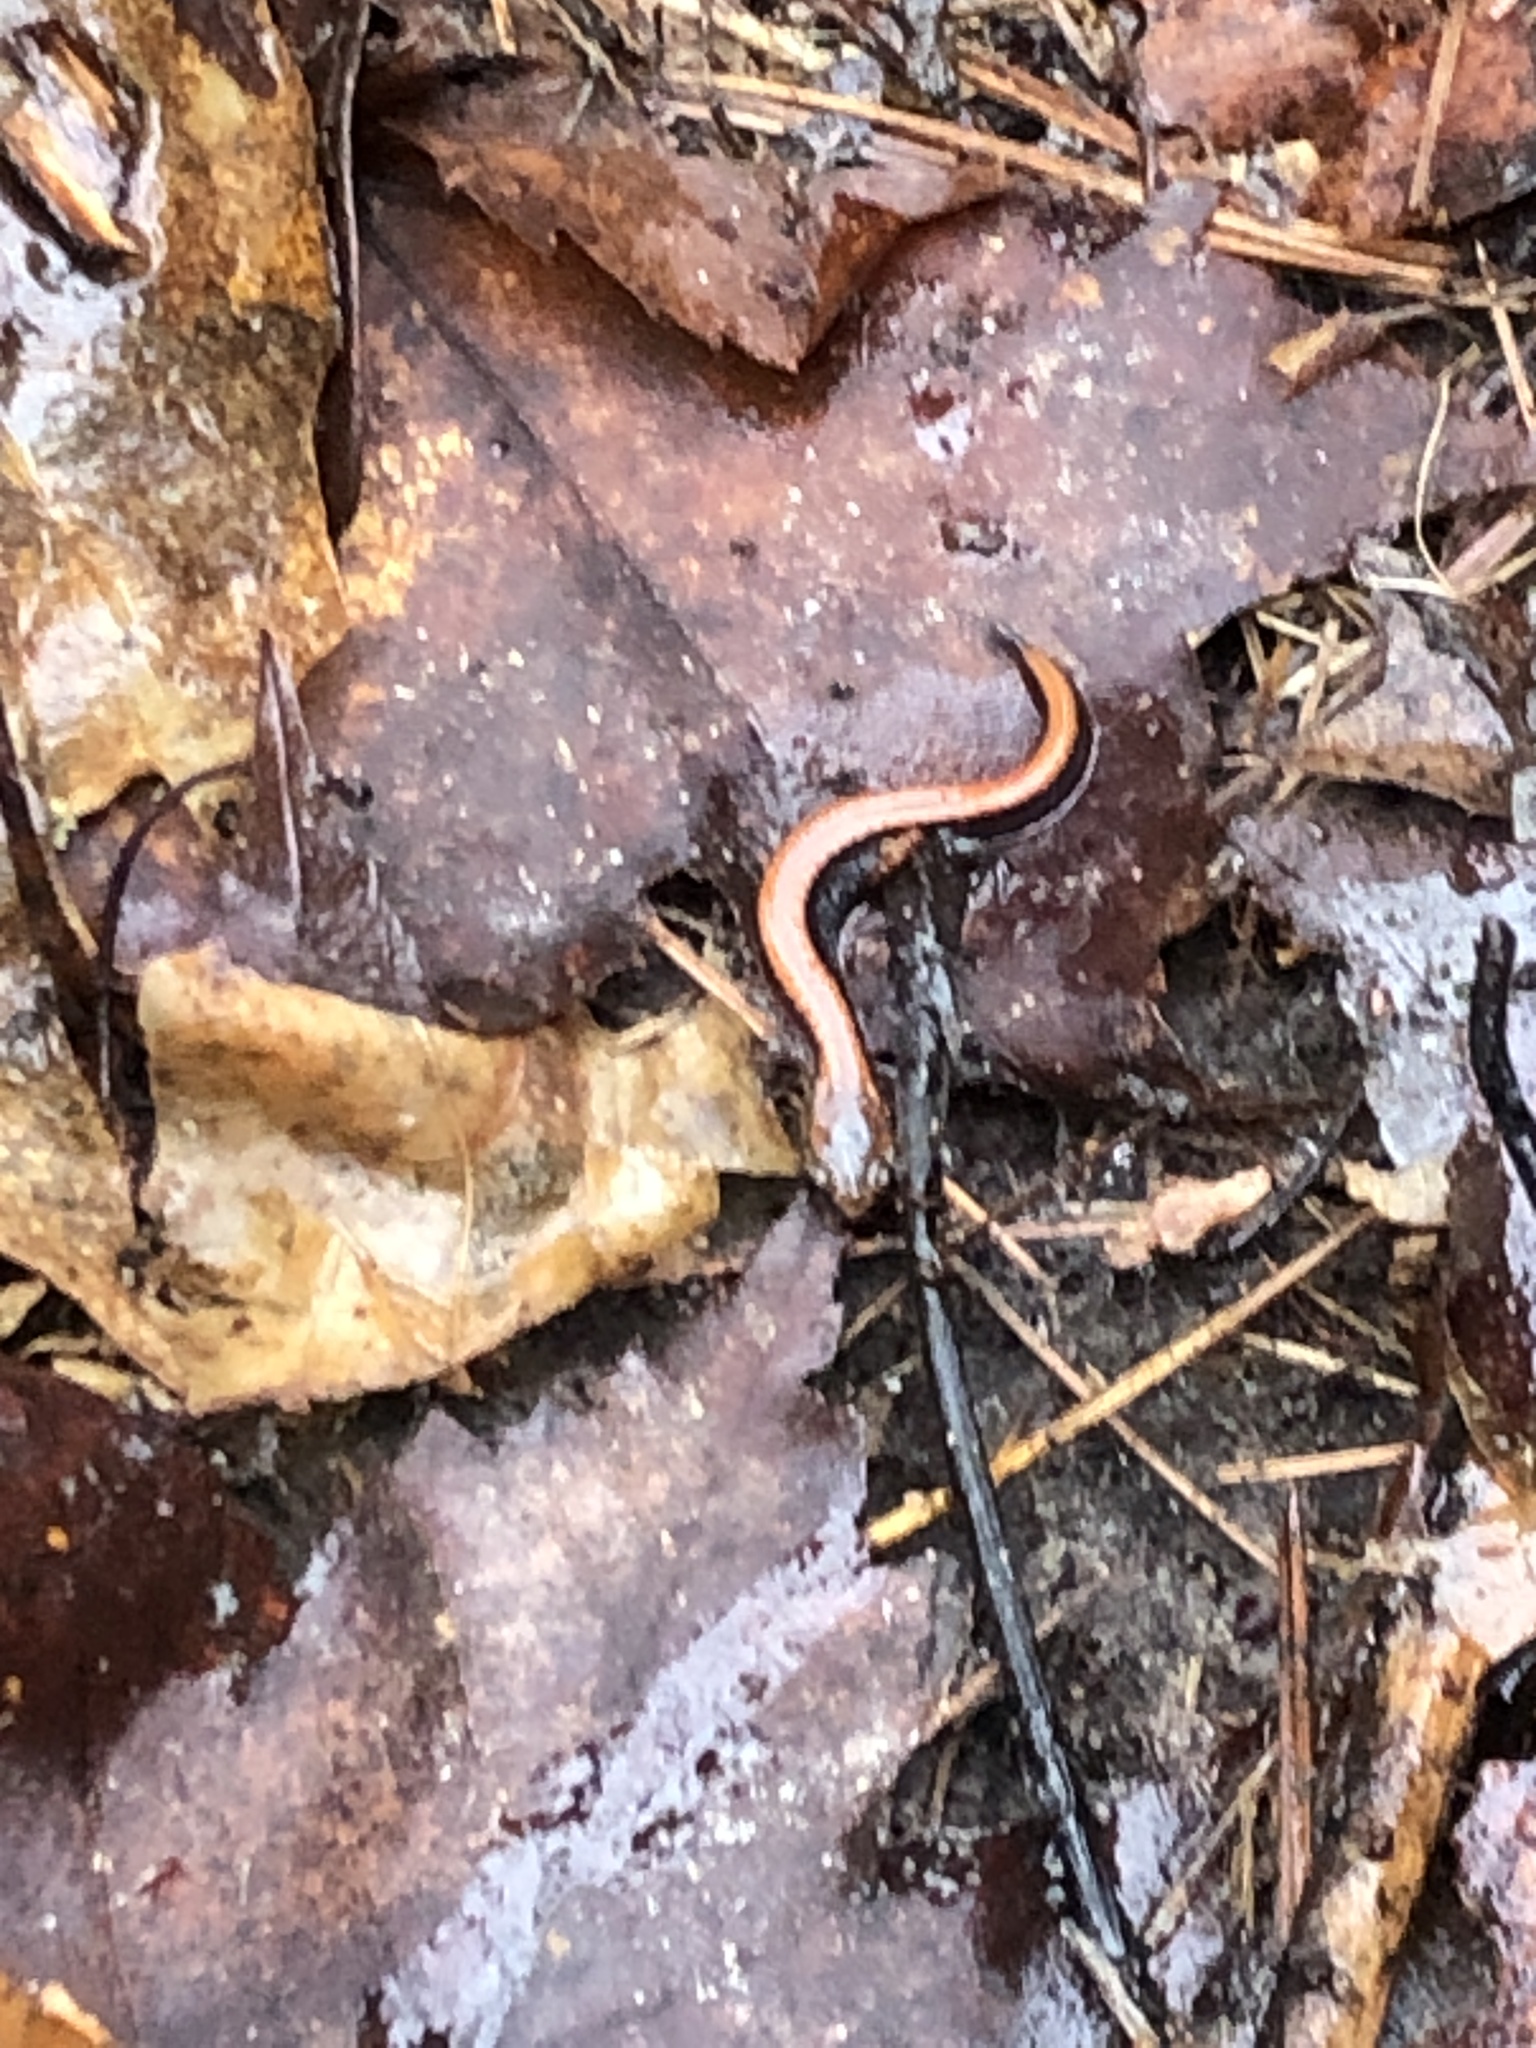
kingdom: Animalia
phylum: Chordata
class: Amphibia
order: Caudata
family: Plethodontidae
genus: Plethodon
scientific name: Plethodon cinereus
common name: Redback salamander
